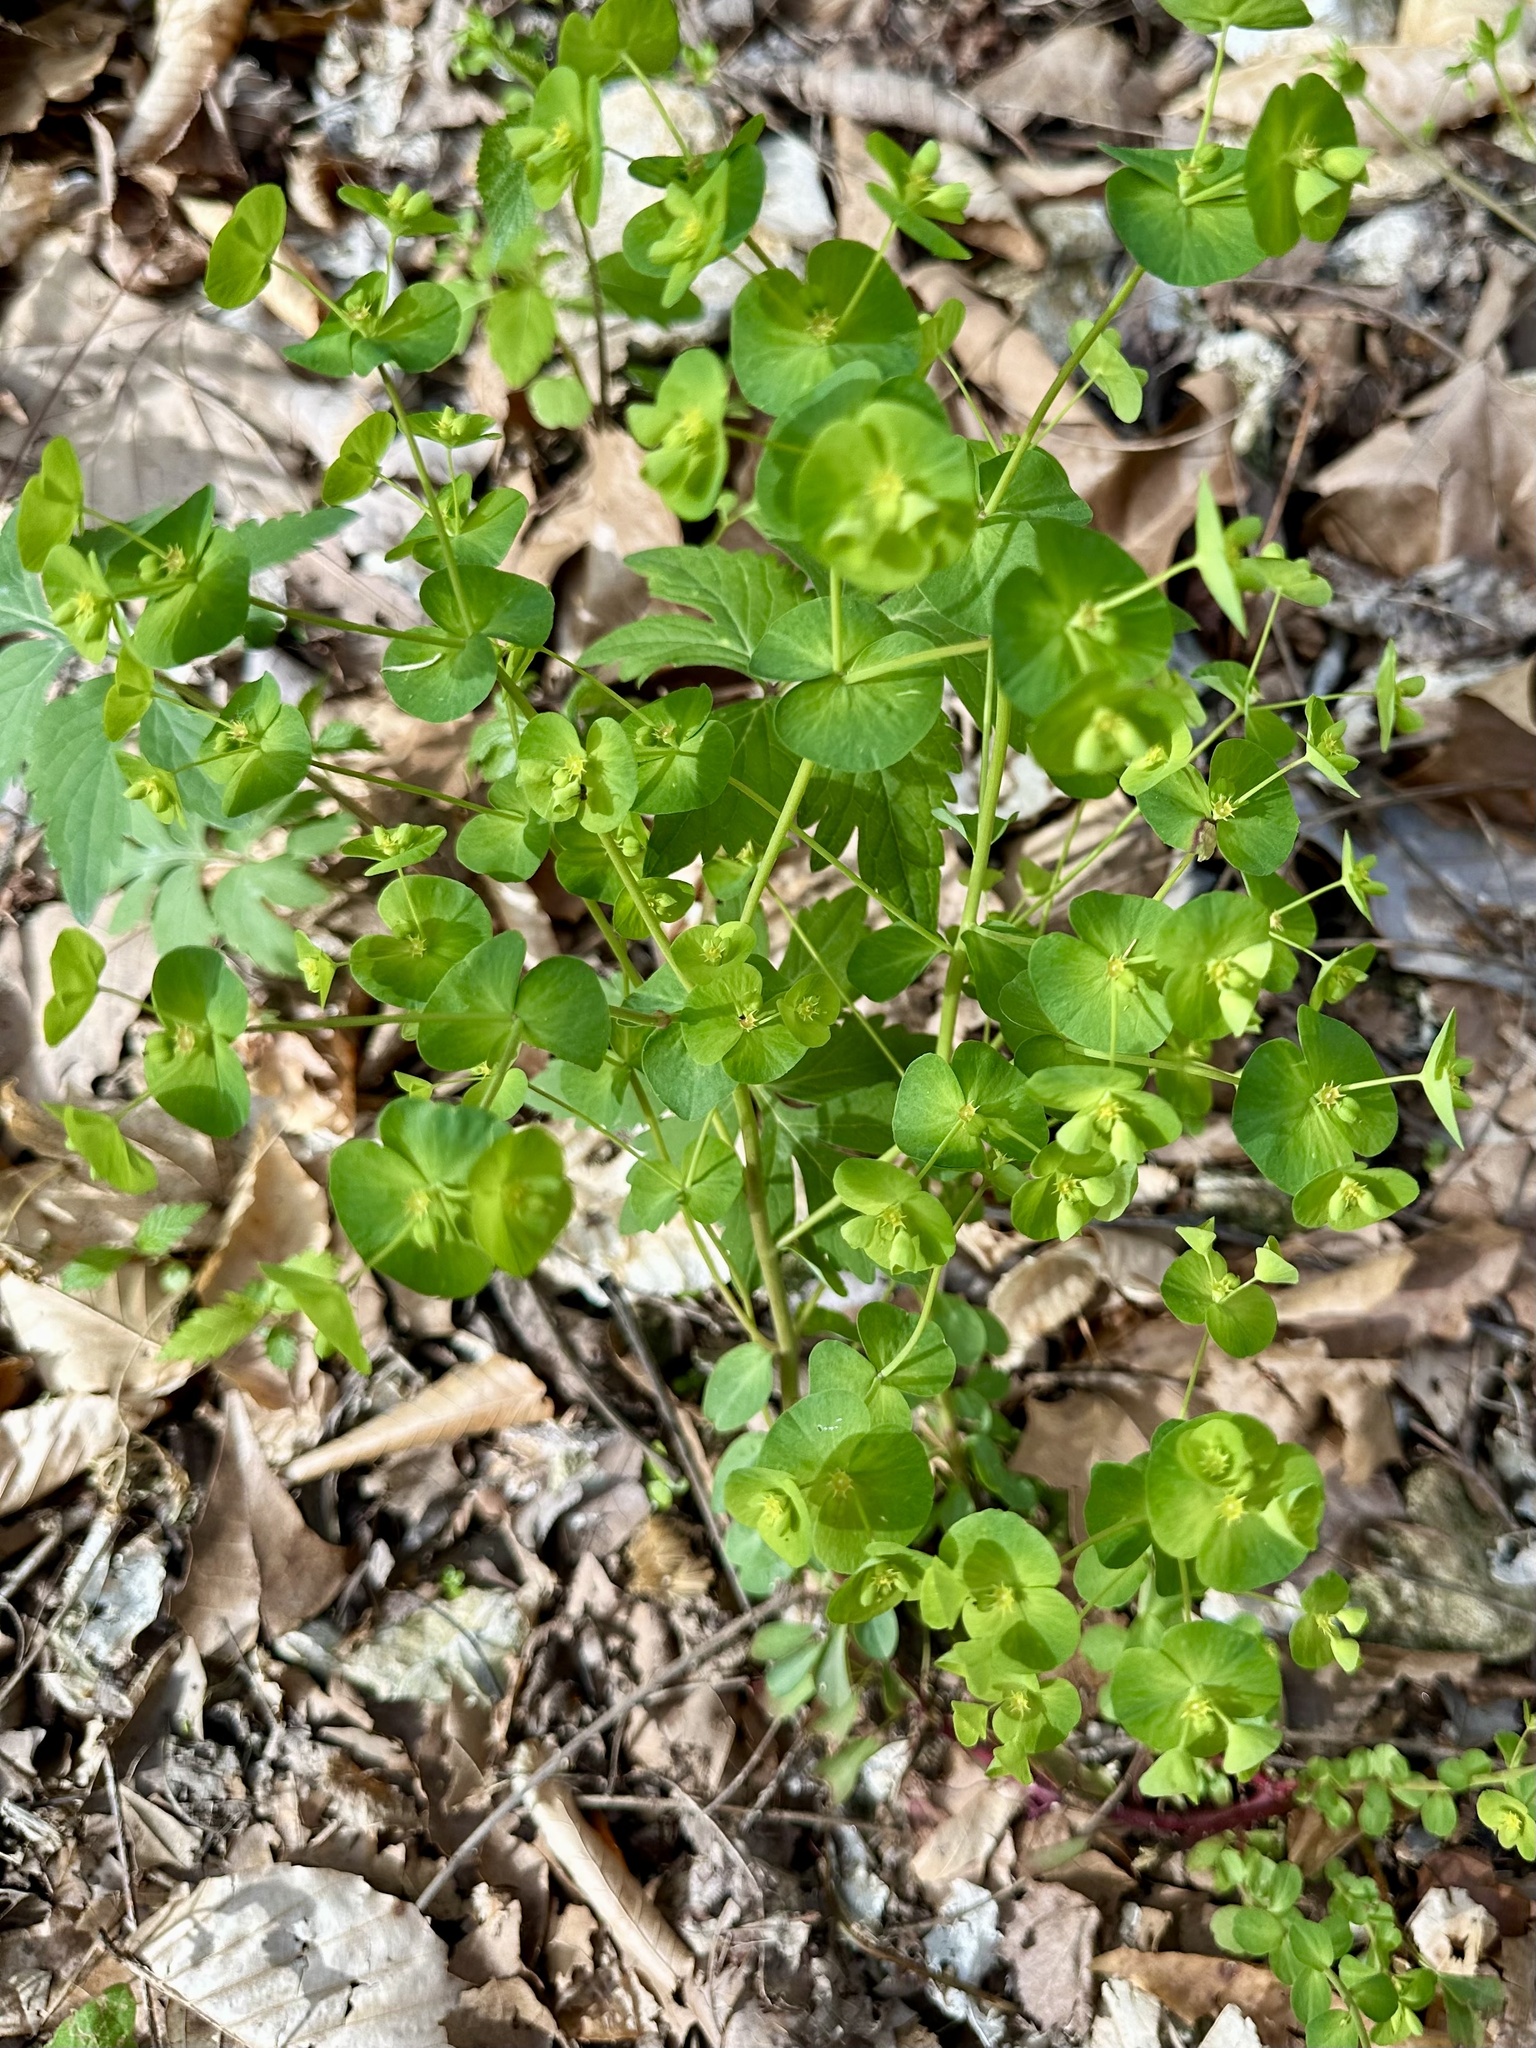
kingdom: Plantae
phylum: Tracheophyta
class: Magnoliopsida
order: Malpighiales
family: Euphorbiaceae
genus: Euphorbia
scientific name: Euphorbia commutata
